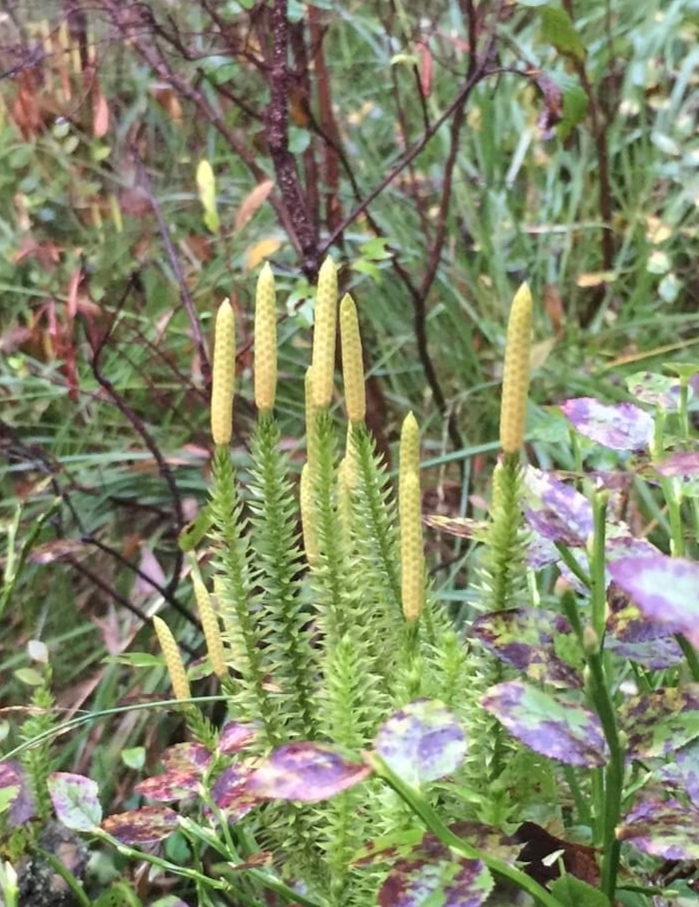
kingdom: Plantae
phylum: Tracheophyta
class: Lycopodiopsida
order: Lycopodiales
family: Lycopodiaceae
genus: Spinulum
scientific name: Spinulum annotinum
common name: Interrupted club-moss
